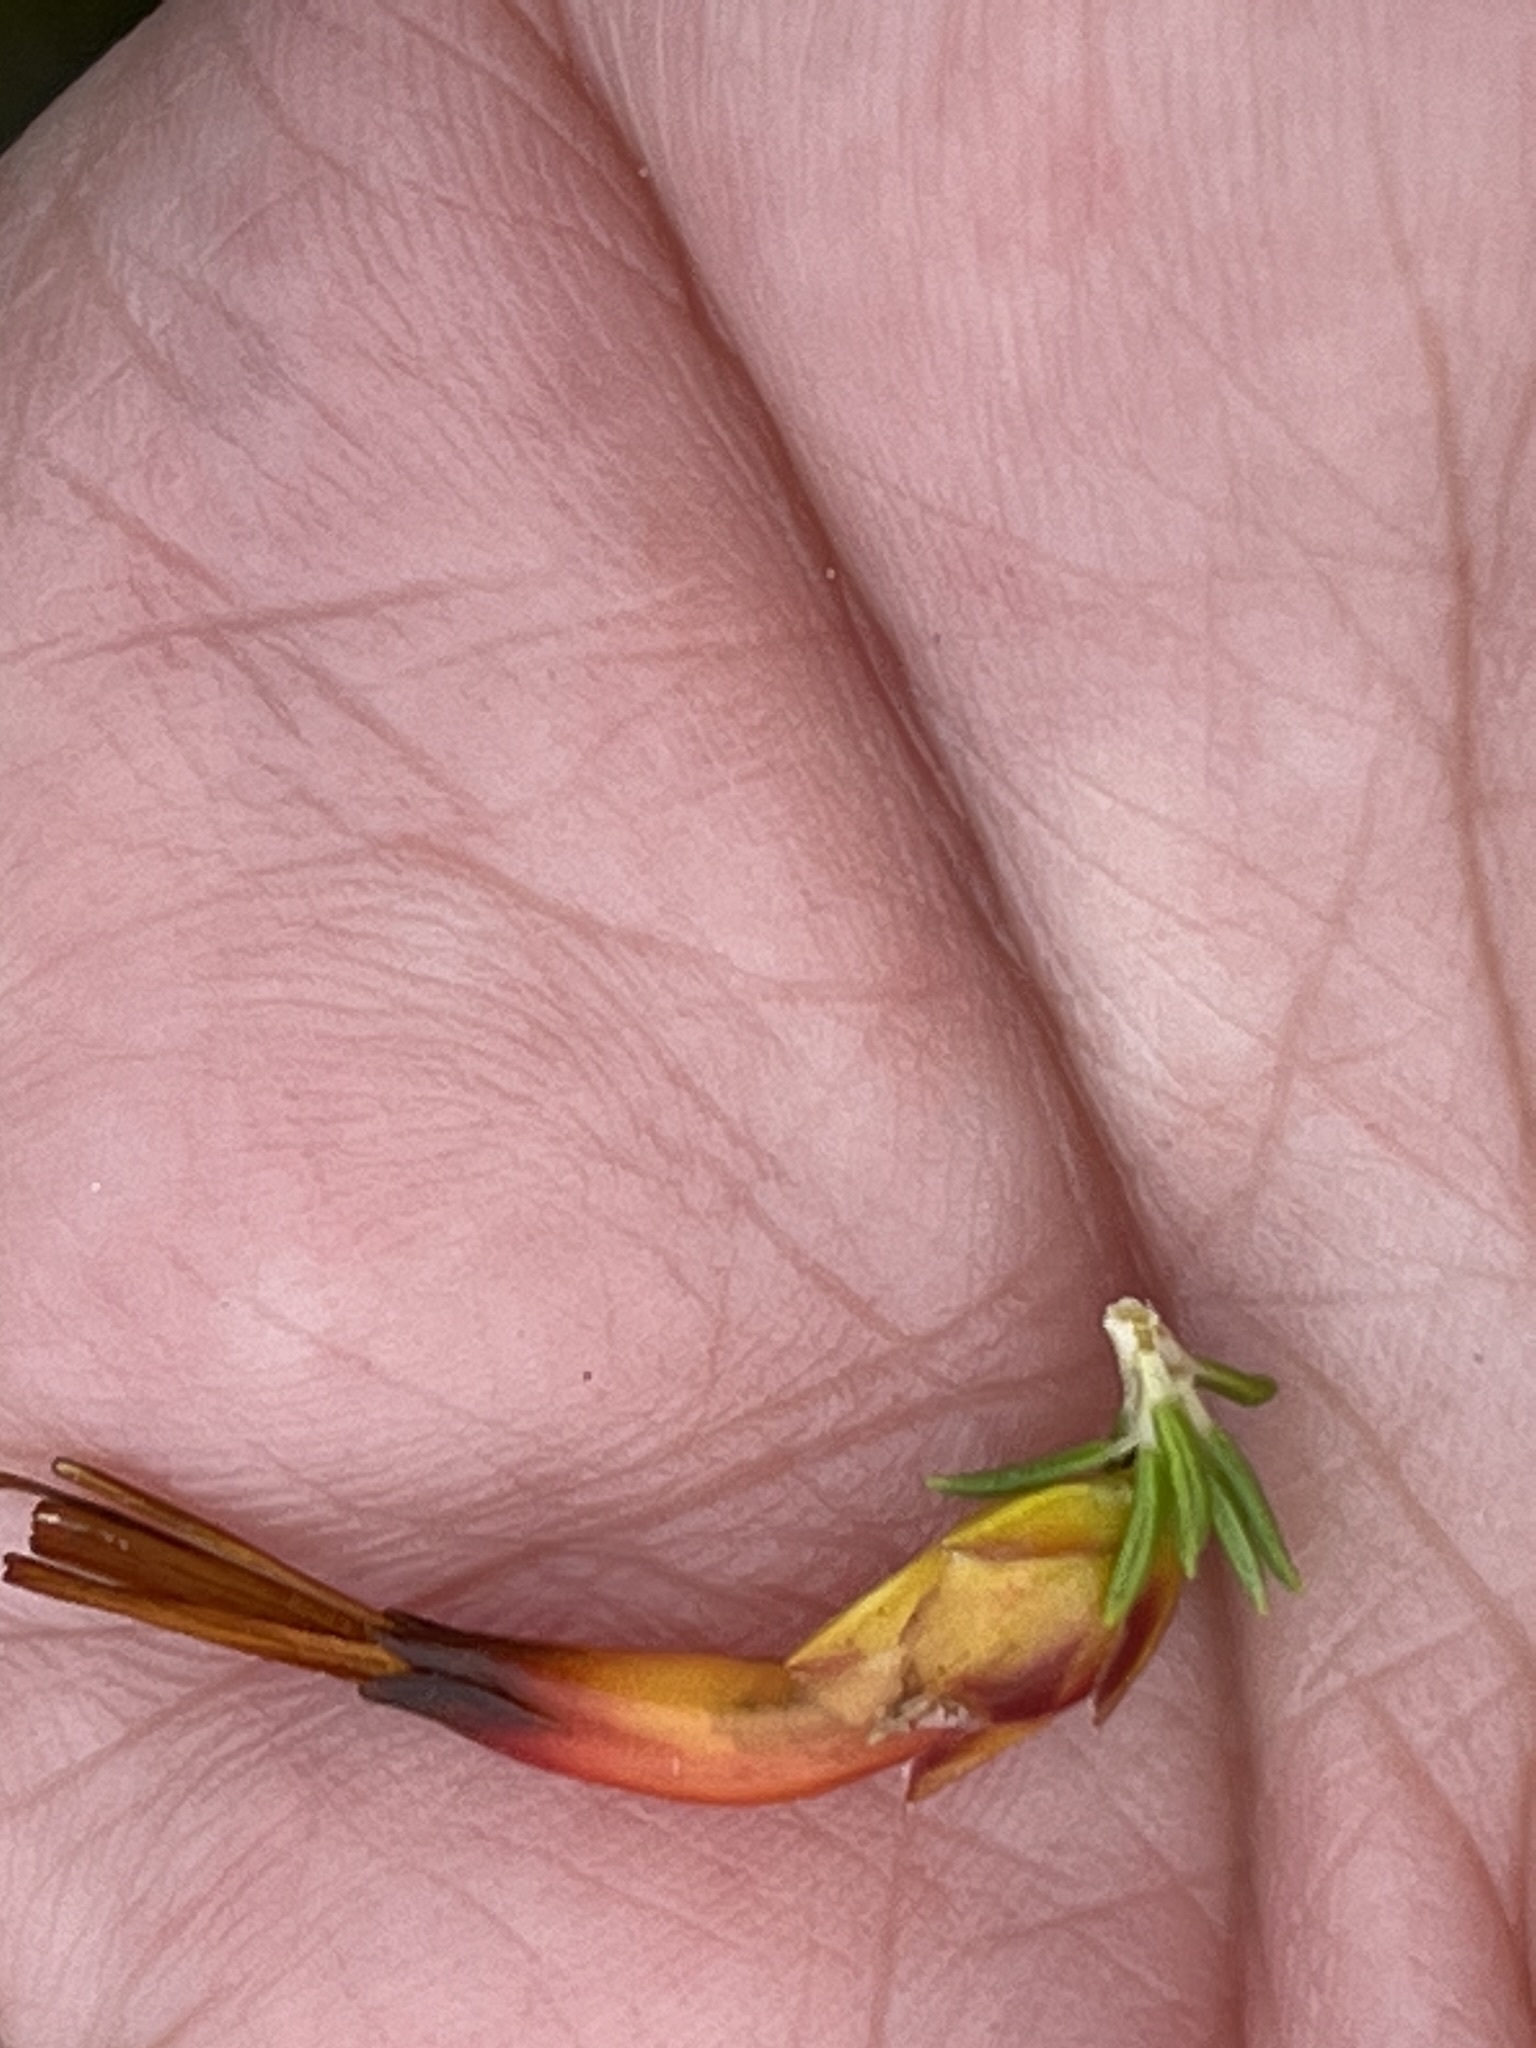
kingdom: Plantae
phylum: Tracheophyta
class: Magnoliopsida
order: Ericales
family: Ericaceae
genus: Erica
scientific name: Erica coccinea
